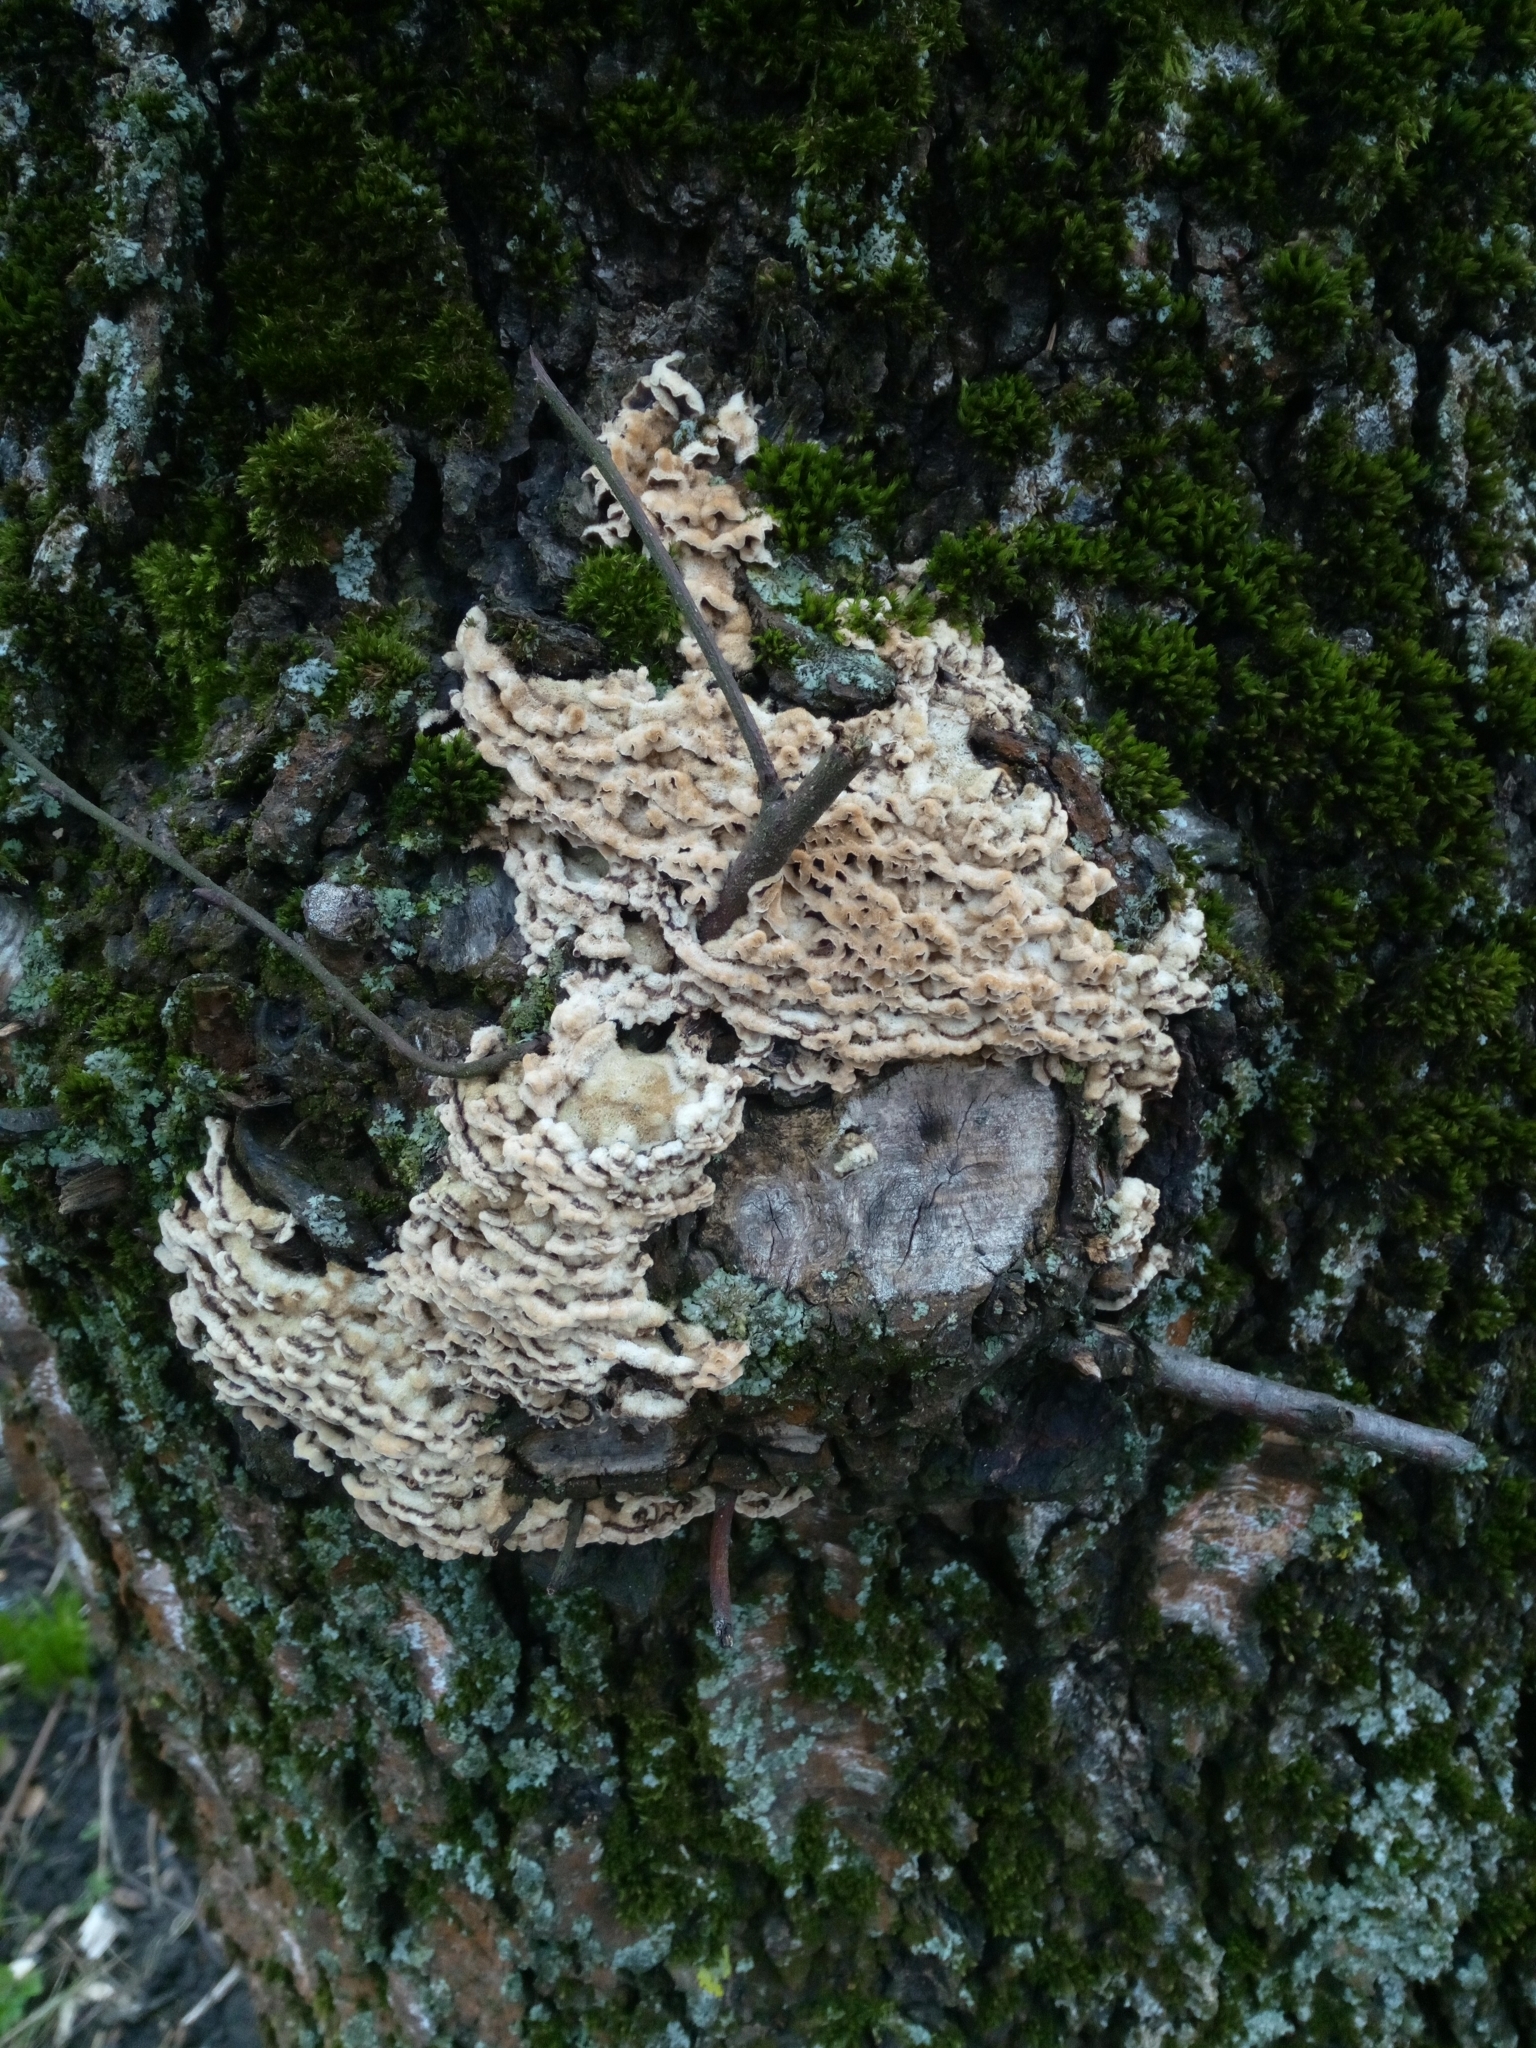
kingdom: Fungi
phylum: Basidiomycota
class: Agaricomycetes
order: Agaricales
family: Cyphellaceae
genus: Chondrostereum
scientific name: Chondrostereum purpureum
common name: Silver leaf disease
